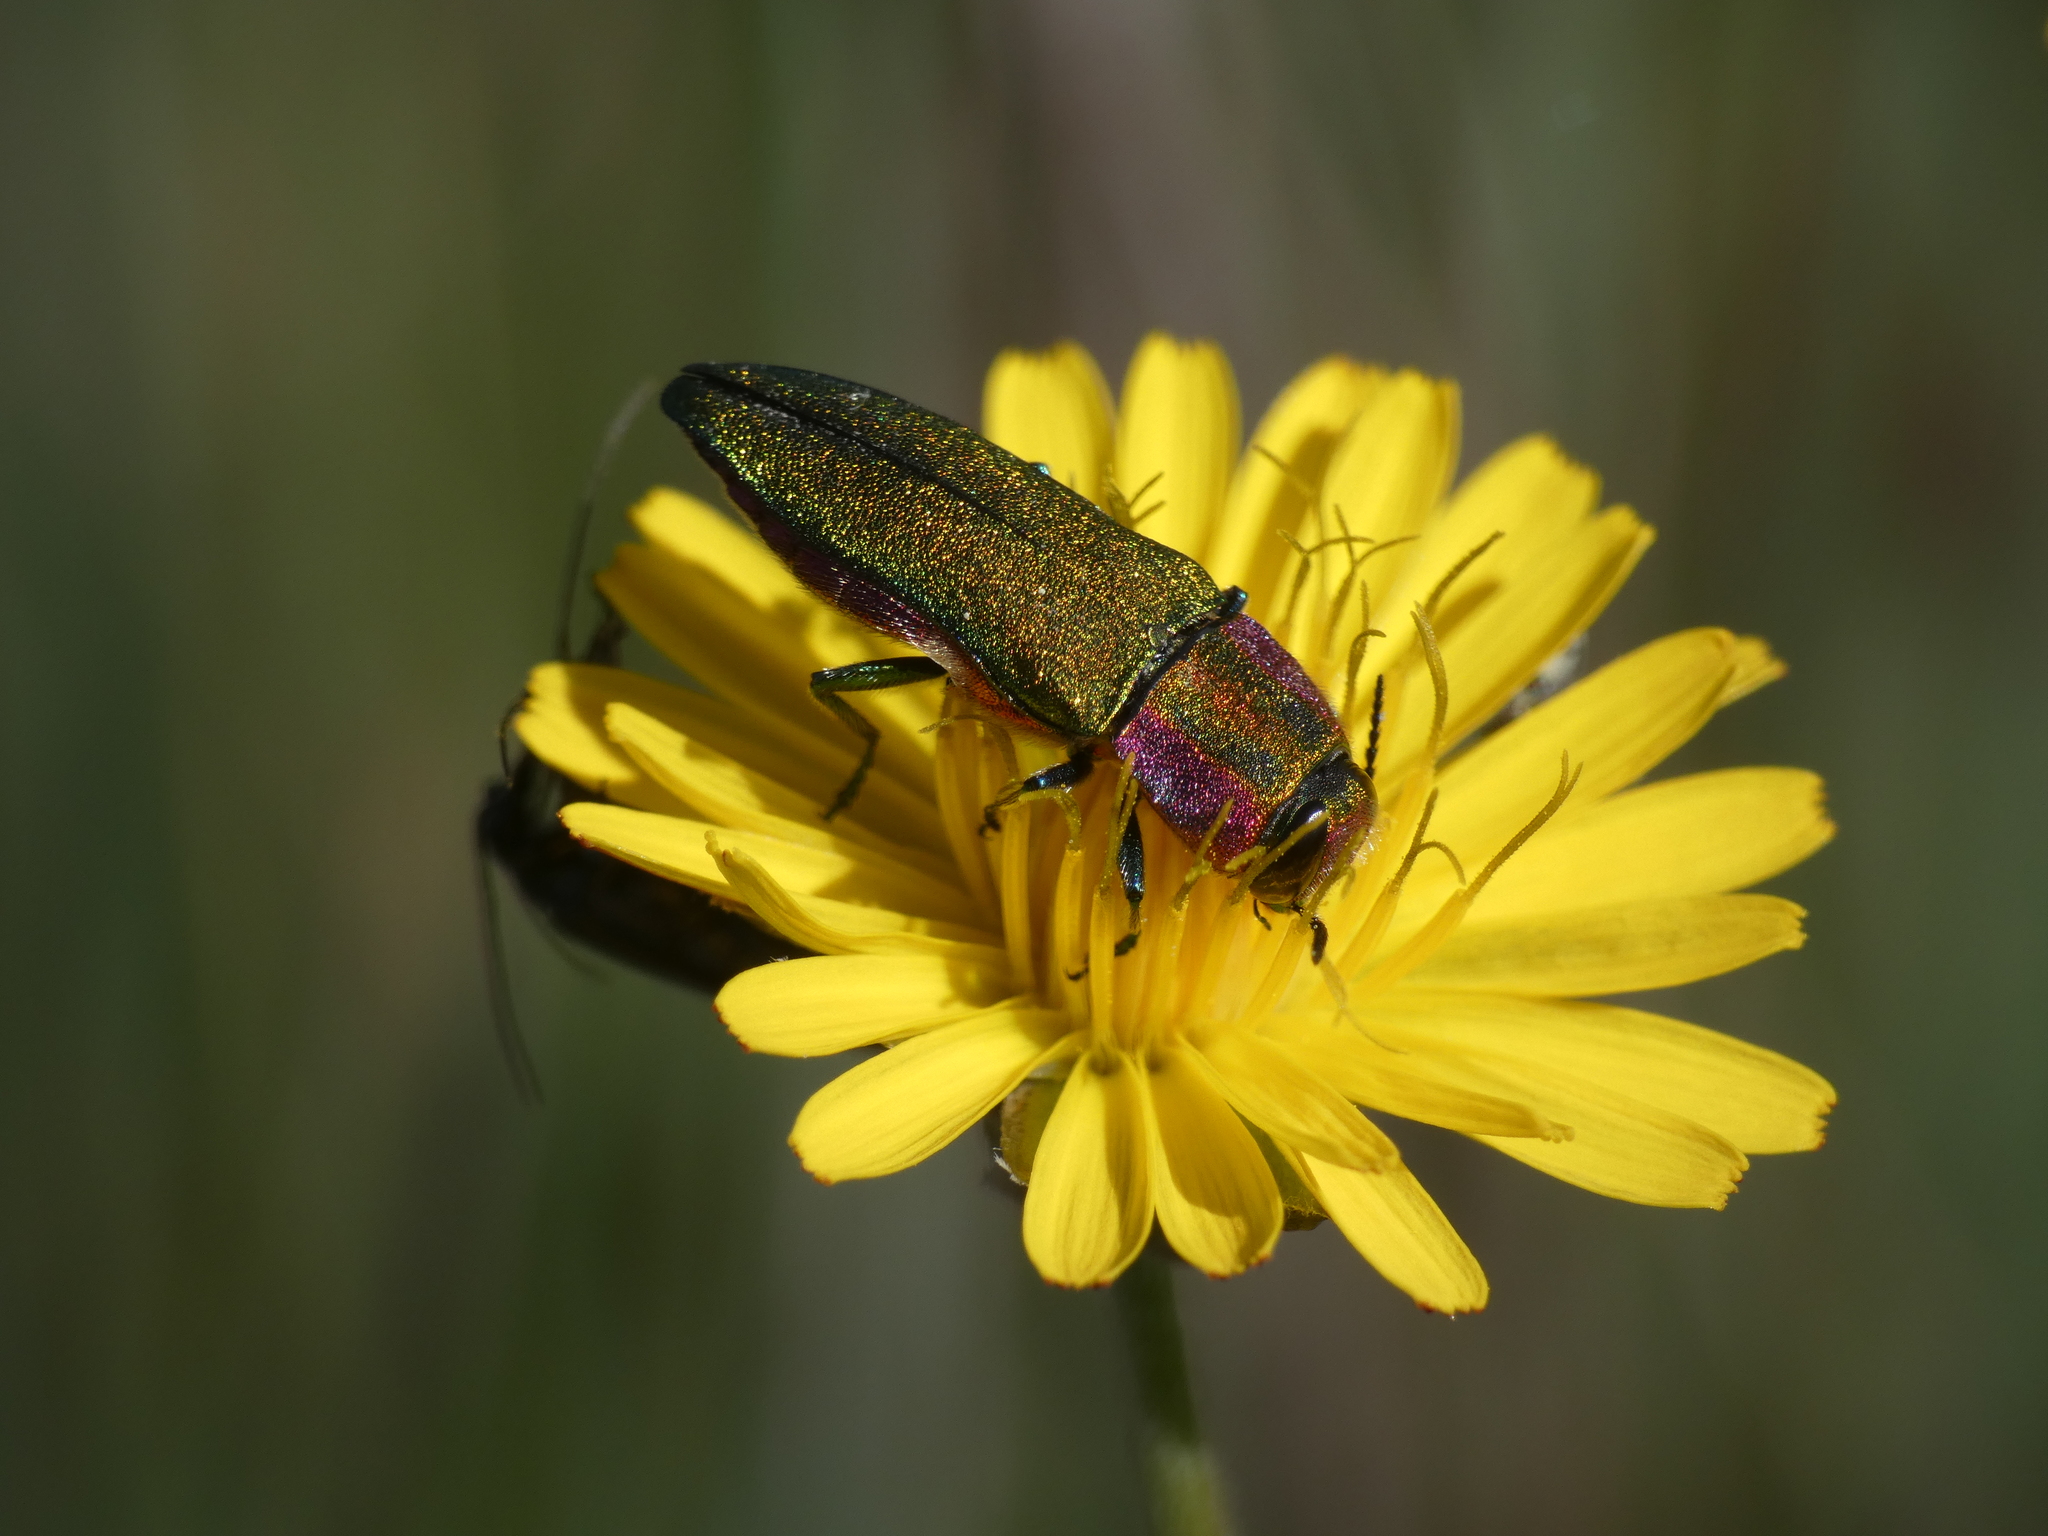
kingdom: Animalia
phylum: Arthropoda
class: Insecta
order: Coleoptera
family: Buprestidae
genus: Anthaxia
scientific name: Anthaxia hungarica
